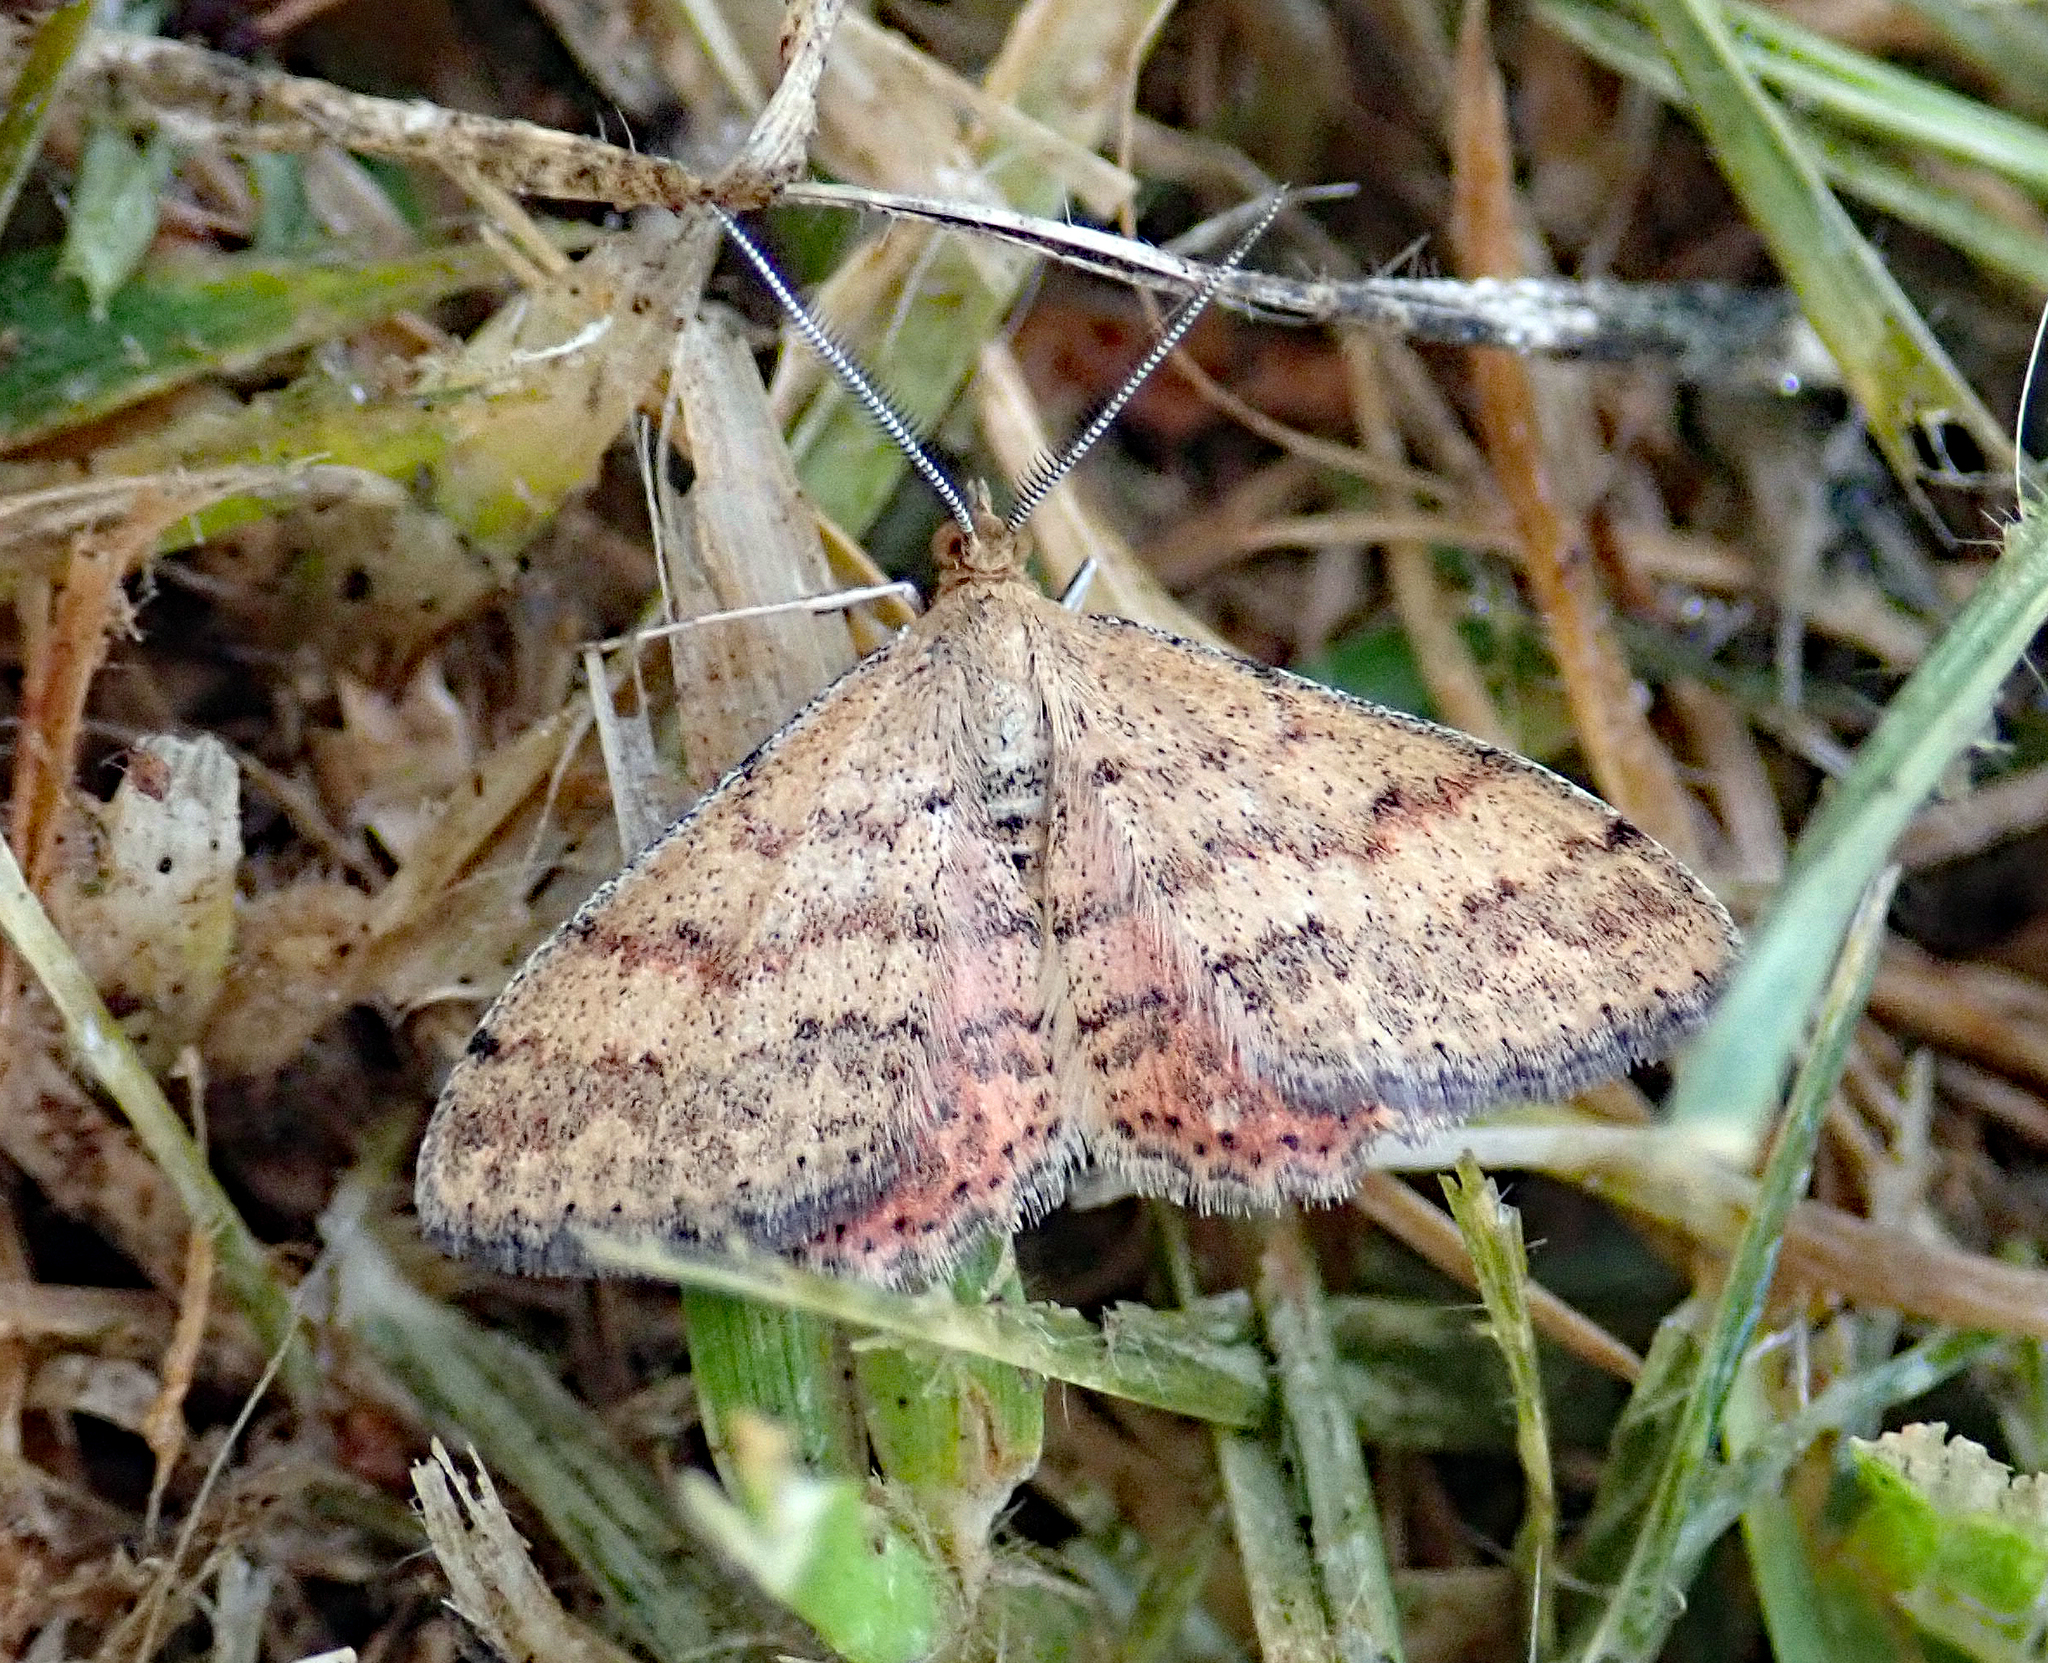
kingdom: Animalia
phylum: Arthropoda
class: Insecta
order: Lepidoptera
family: Geometridae
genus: Scopula
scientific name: Scopula rubraria
